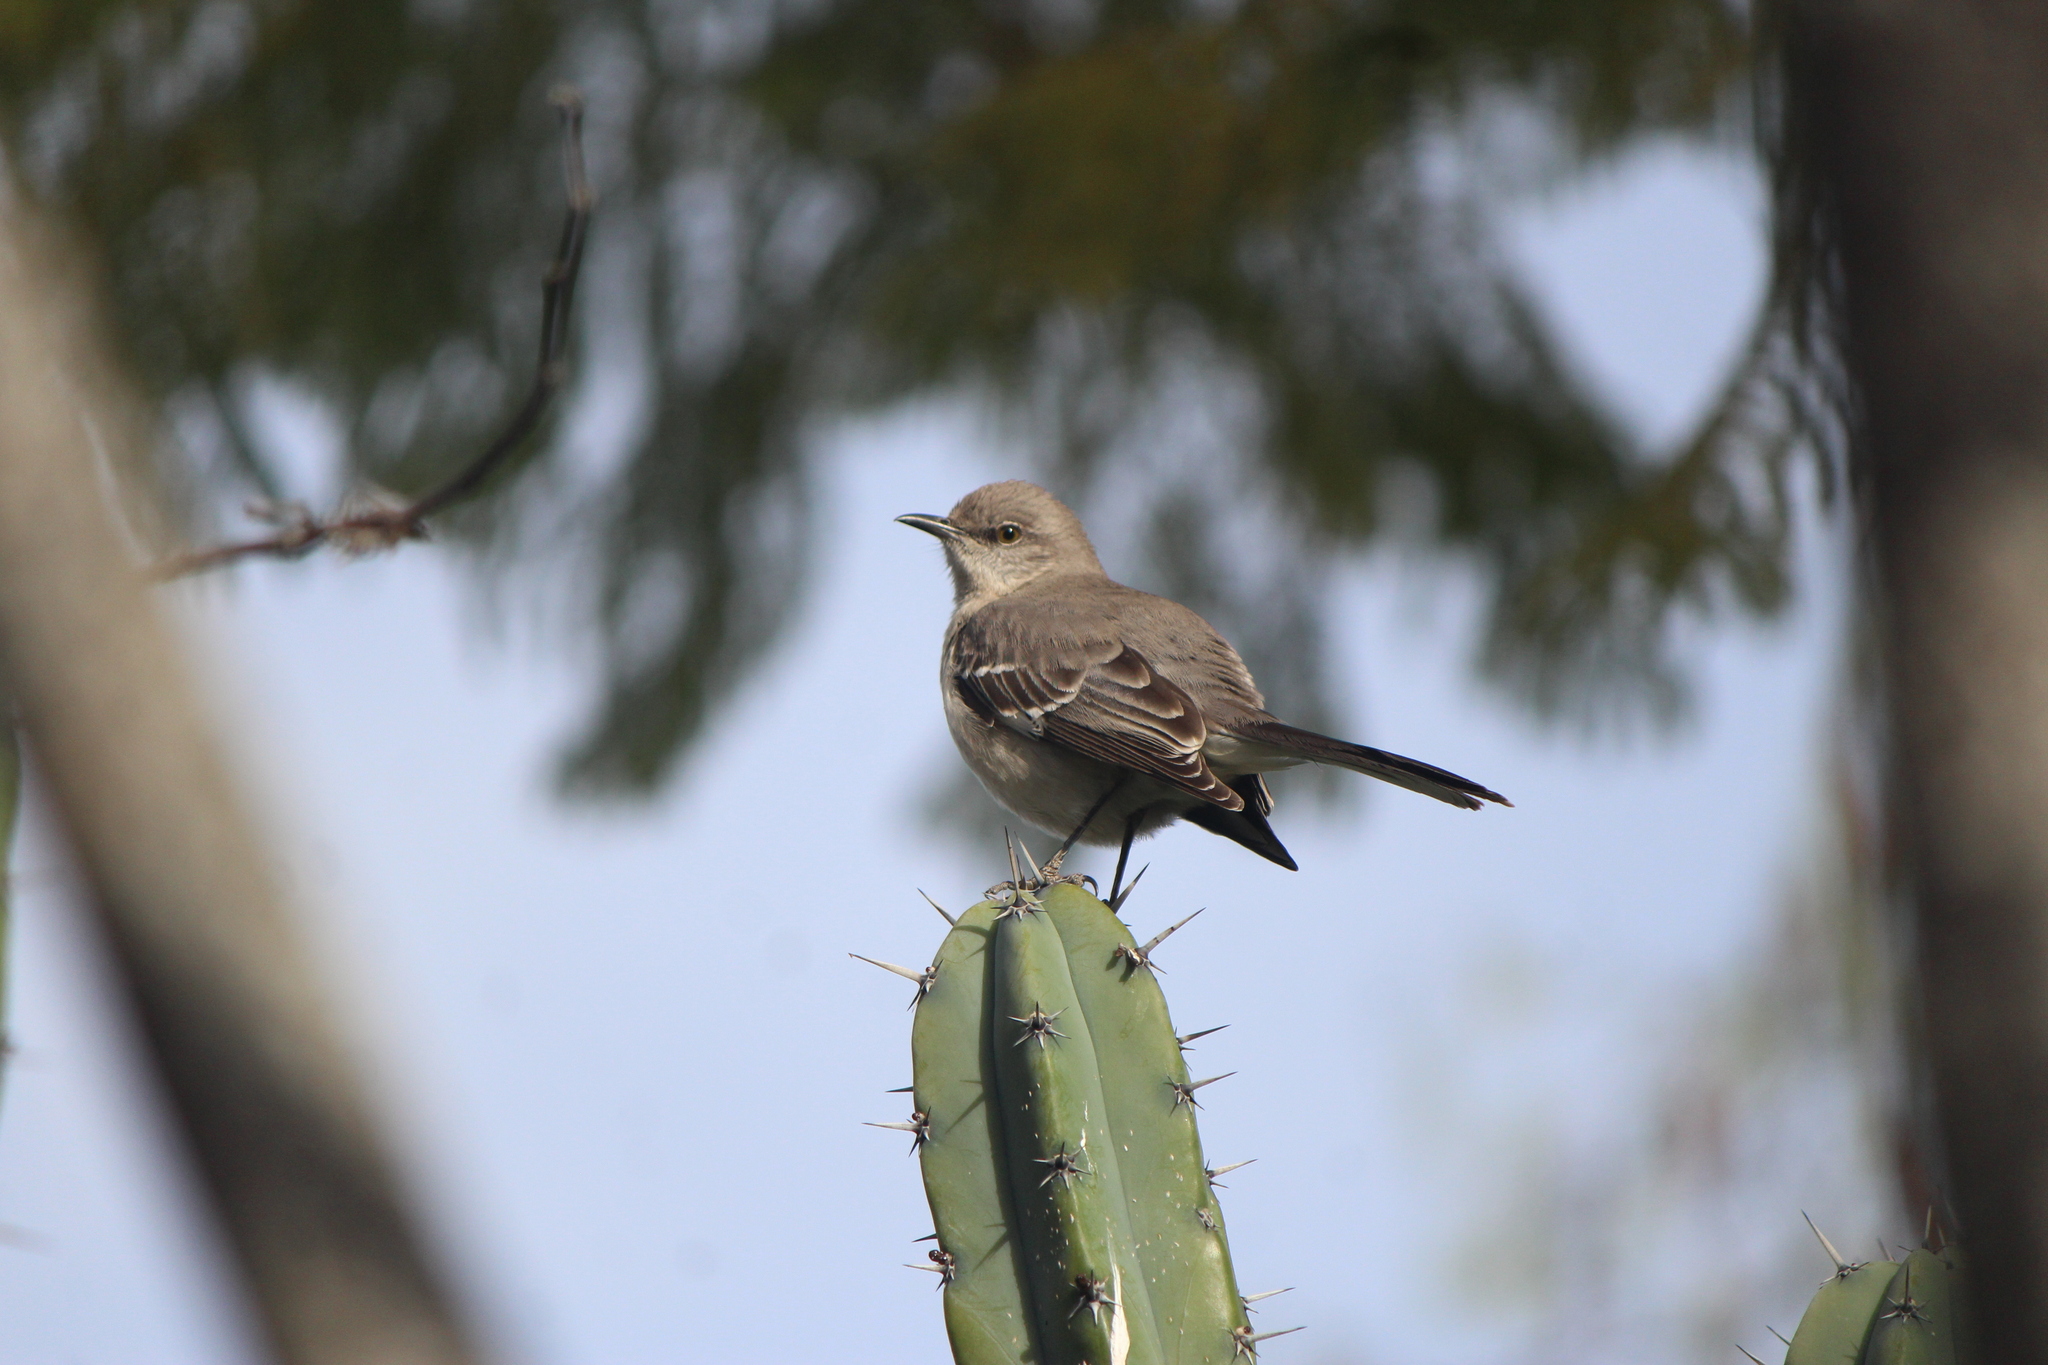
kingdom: Animalia
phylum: Chordata
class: Aves
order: Passeriformes
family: Mimidae
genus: Mimus
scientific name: Mimus polyglottos
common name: Northern mockingbird
